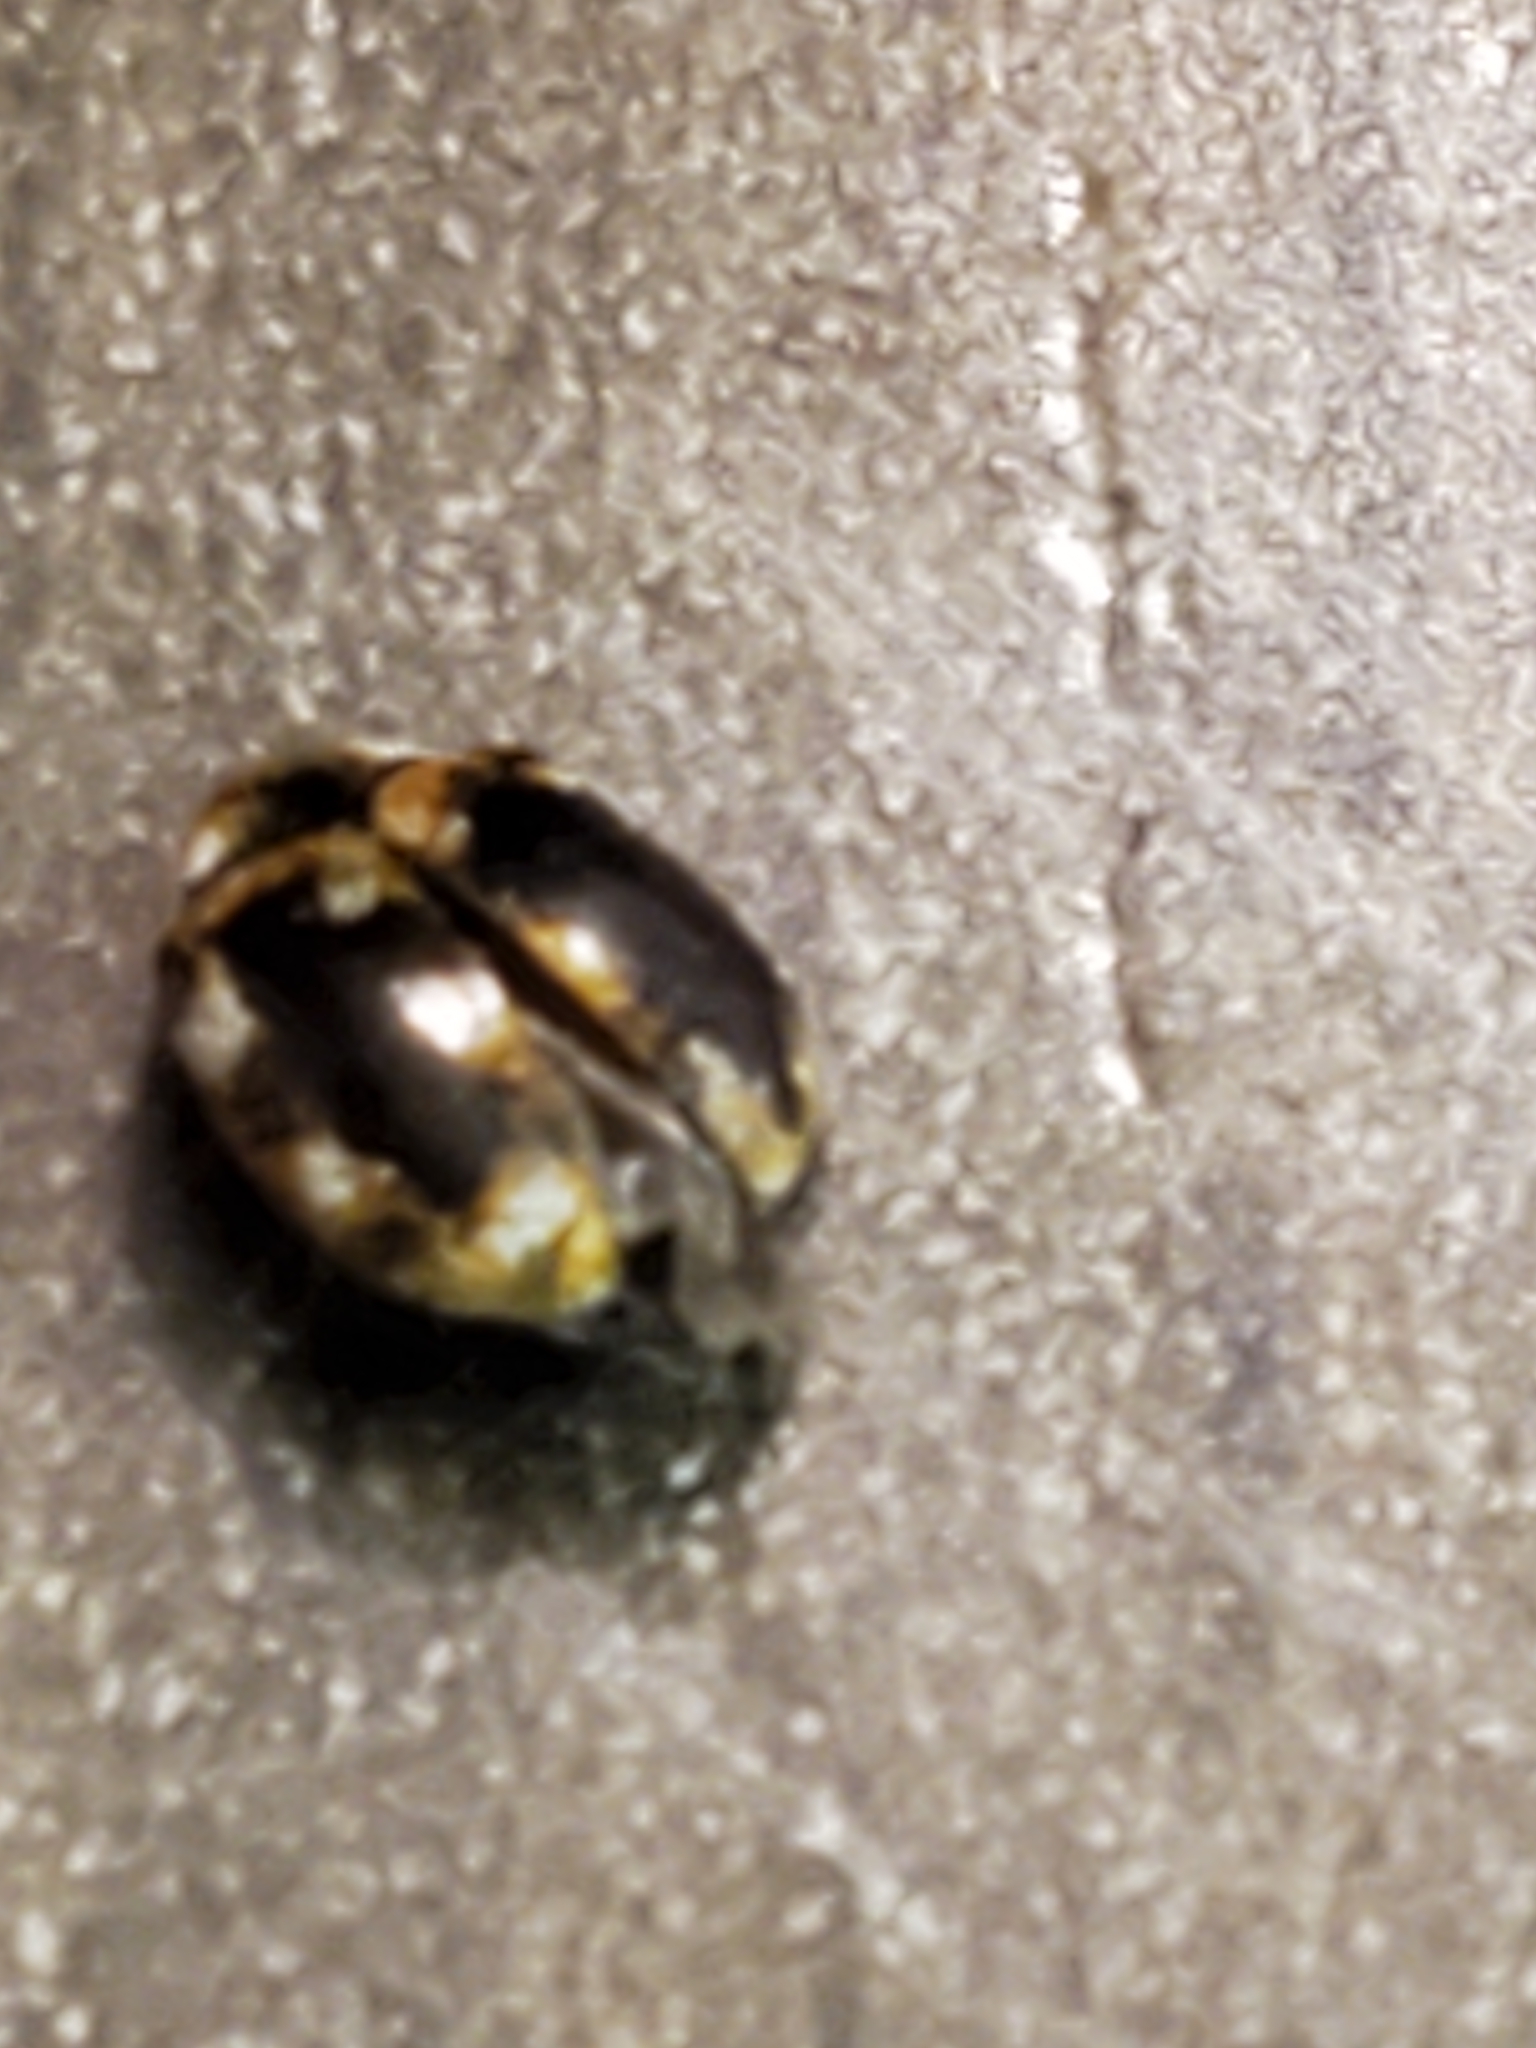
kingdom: Animalia
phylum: Arthropoda
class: Insecta
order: Coleoptera
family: Dermestidae
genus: Anthrenus
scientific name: Anthrenus verbasci
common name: Varied carpet beetle
